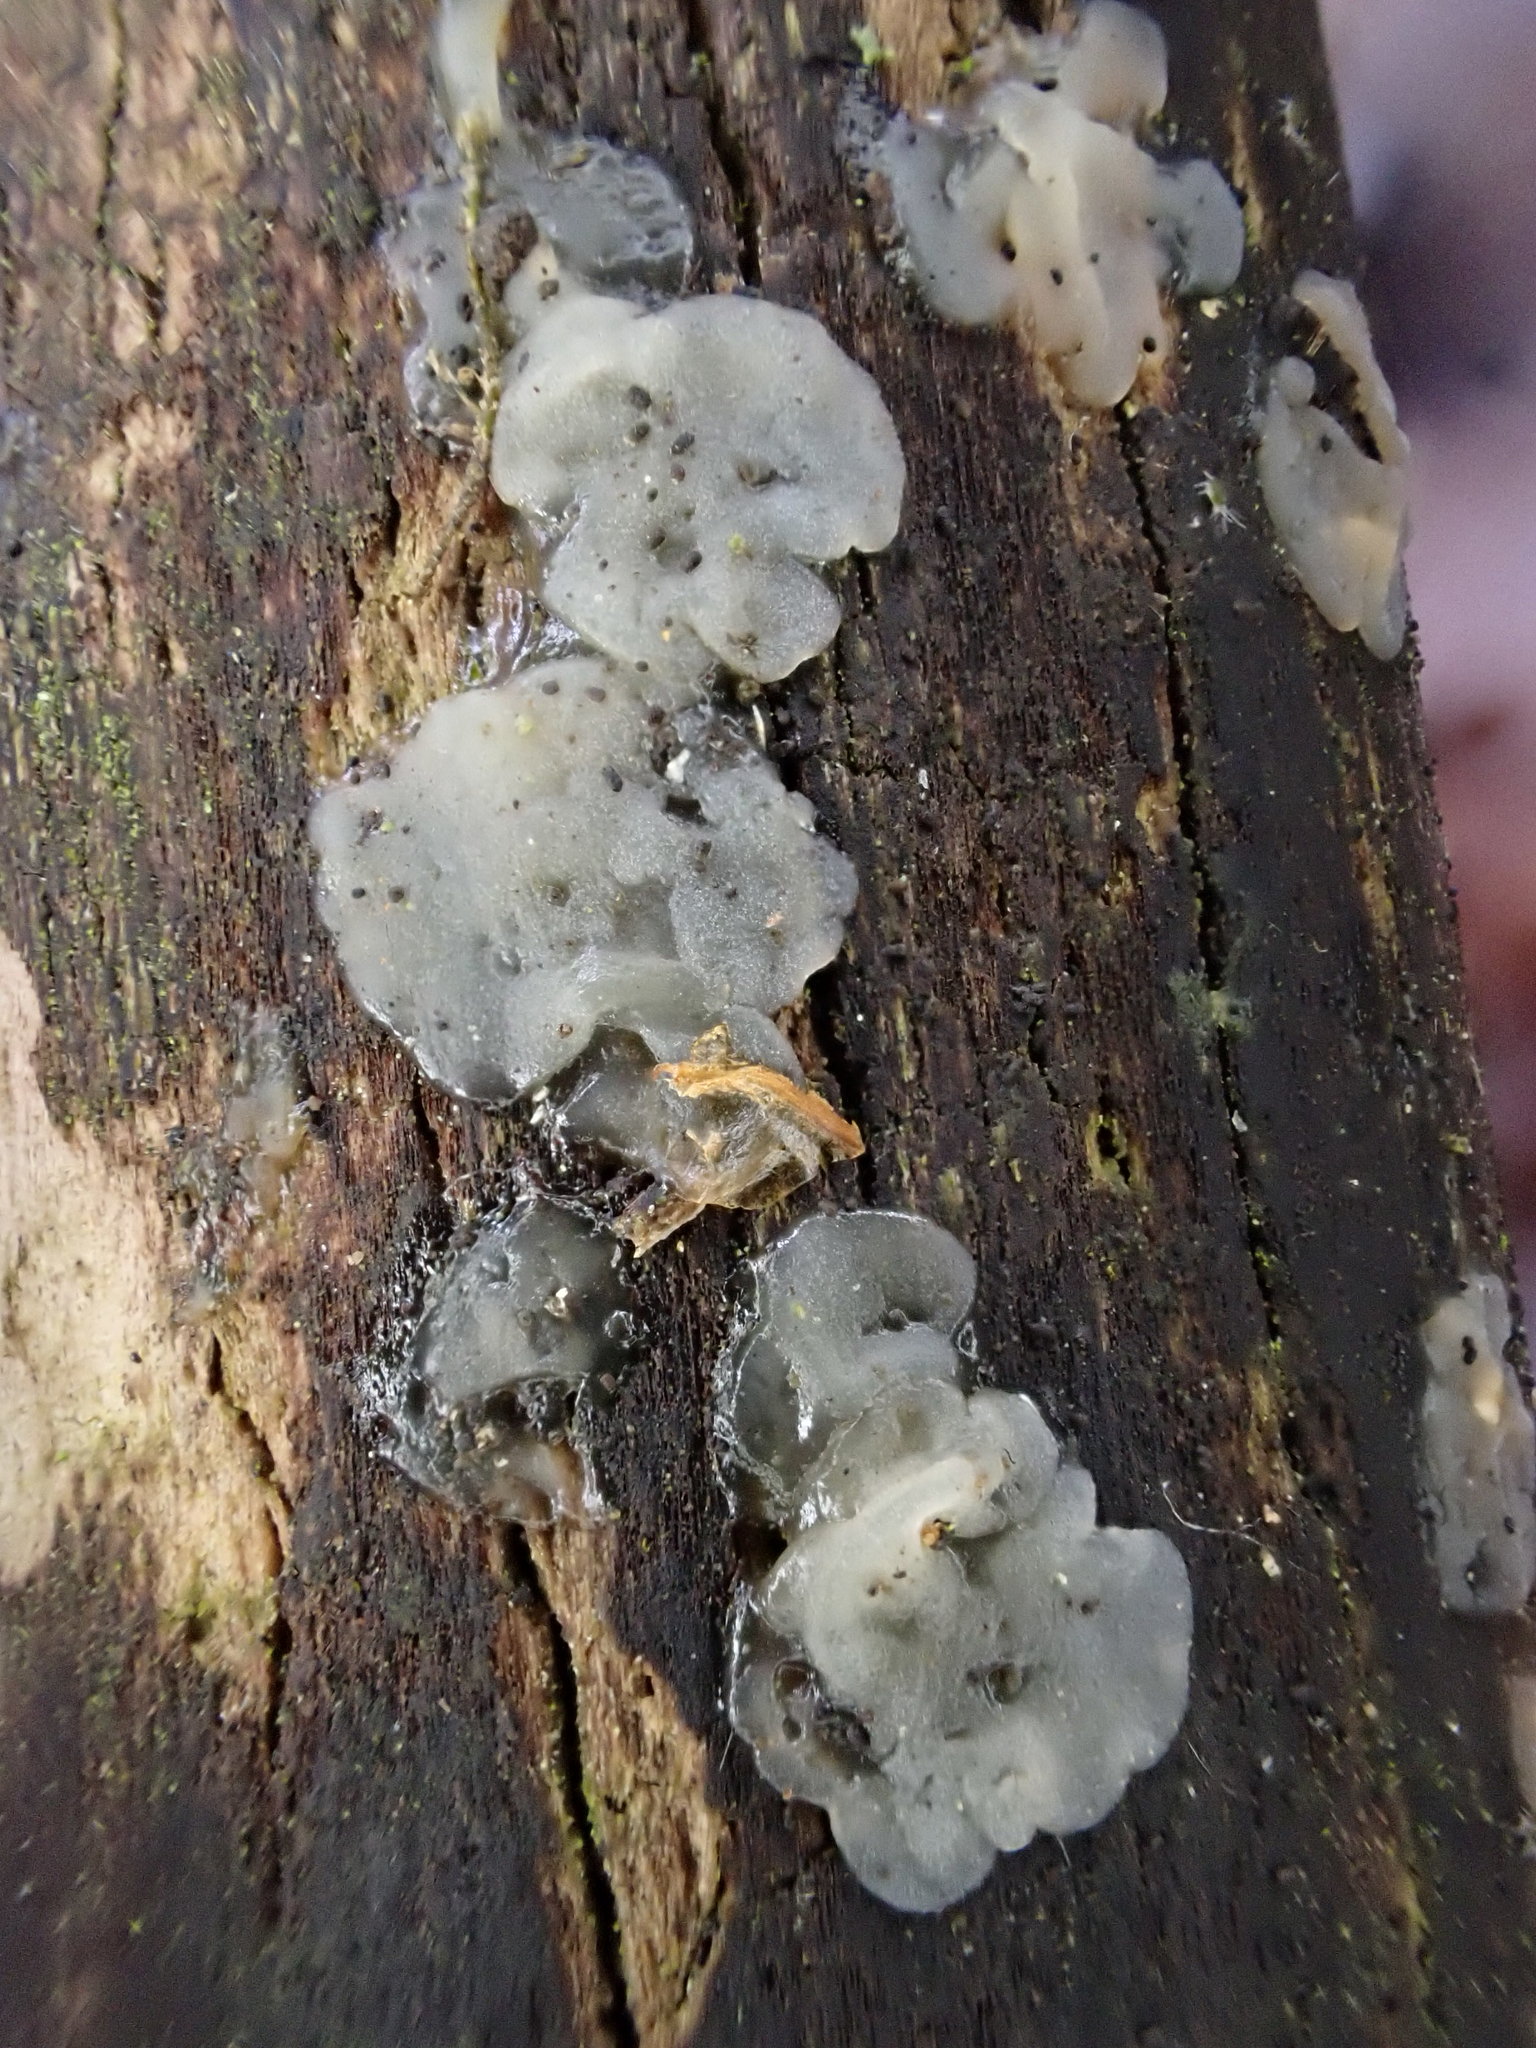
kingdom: Fungi
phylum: Basidiomycota
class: Agaricomycetes
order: Auriculariales
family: Hyaloriaceae
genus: Myxarium
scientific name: Myxarium nucleatum
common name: Crystal brain fungus
